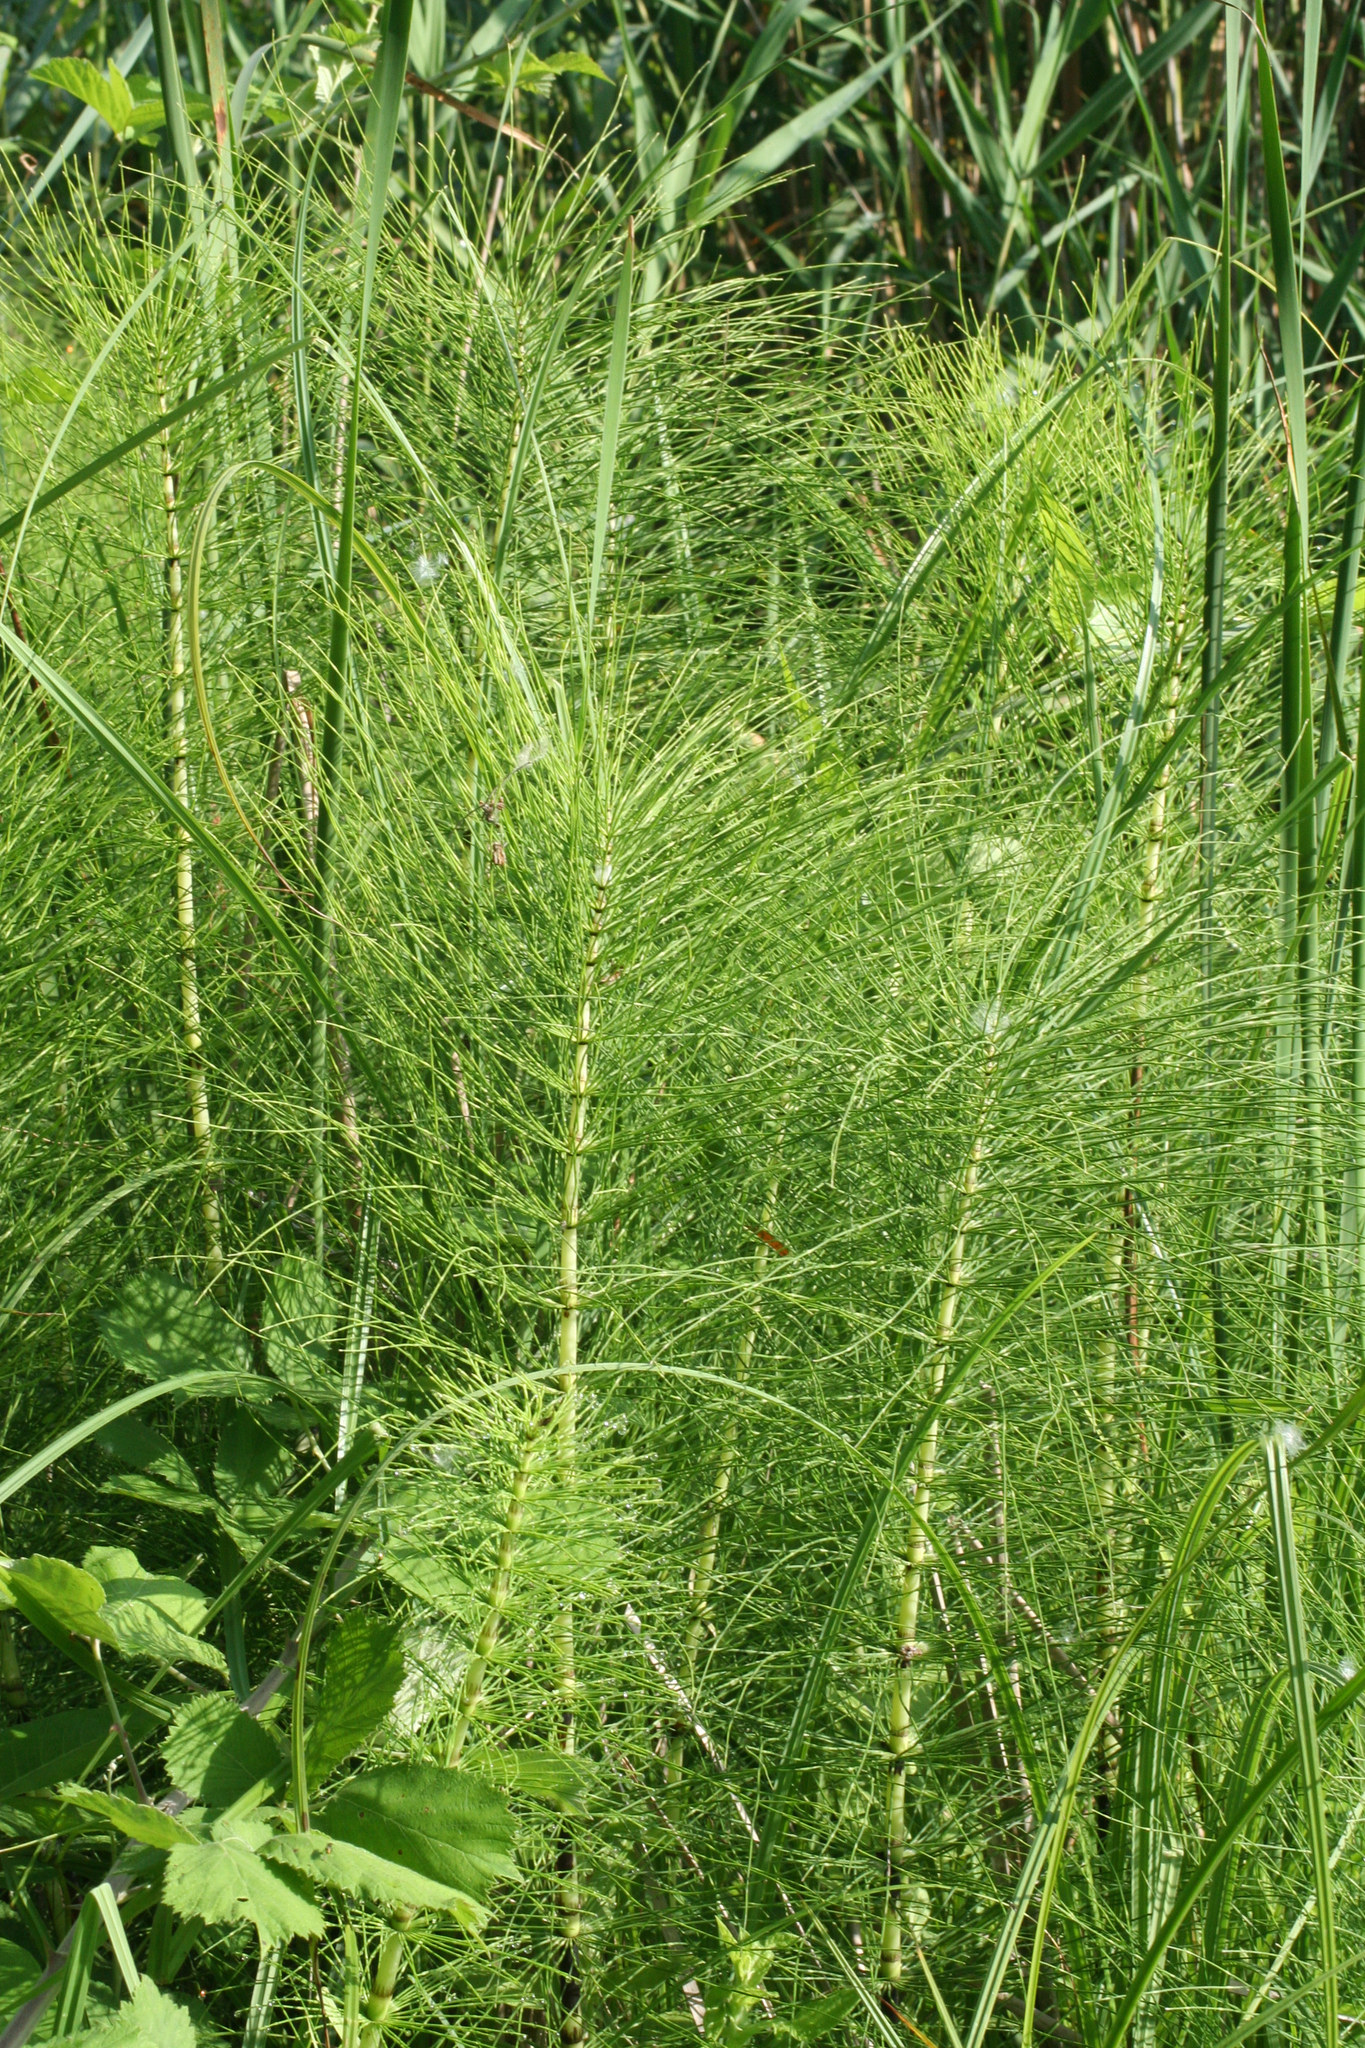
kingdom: Plantae
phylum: Tracheophyta
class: Polypodiopsida
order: Equisetales
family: Equisetaceae
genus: Equisetum
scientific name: Equisetum telmateia
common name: Great horsetail
